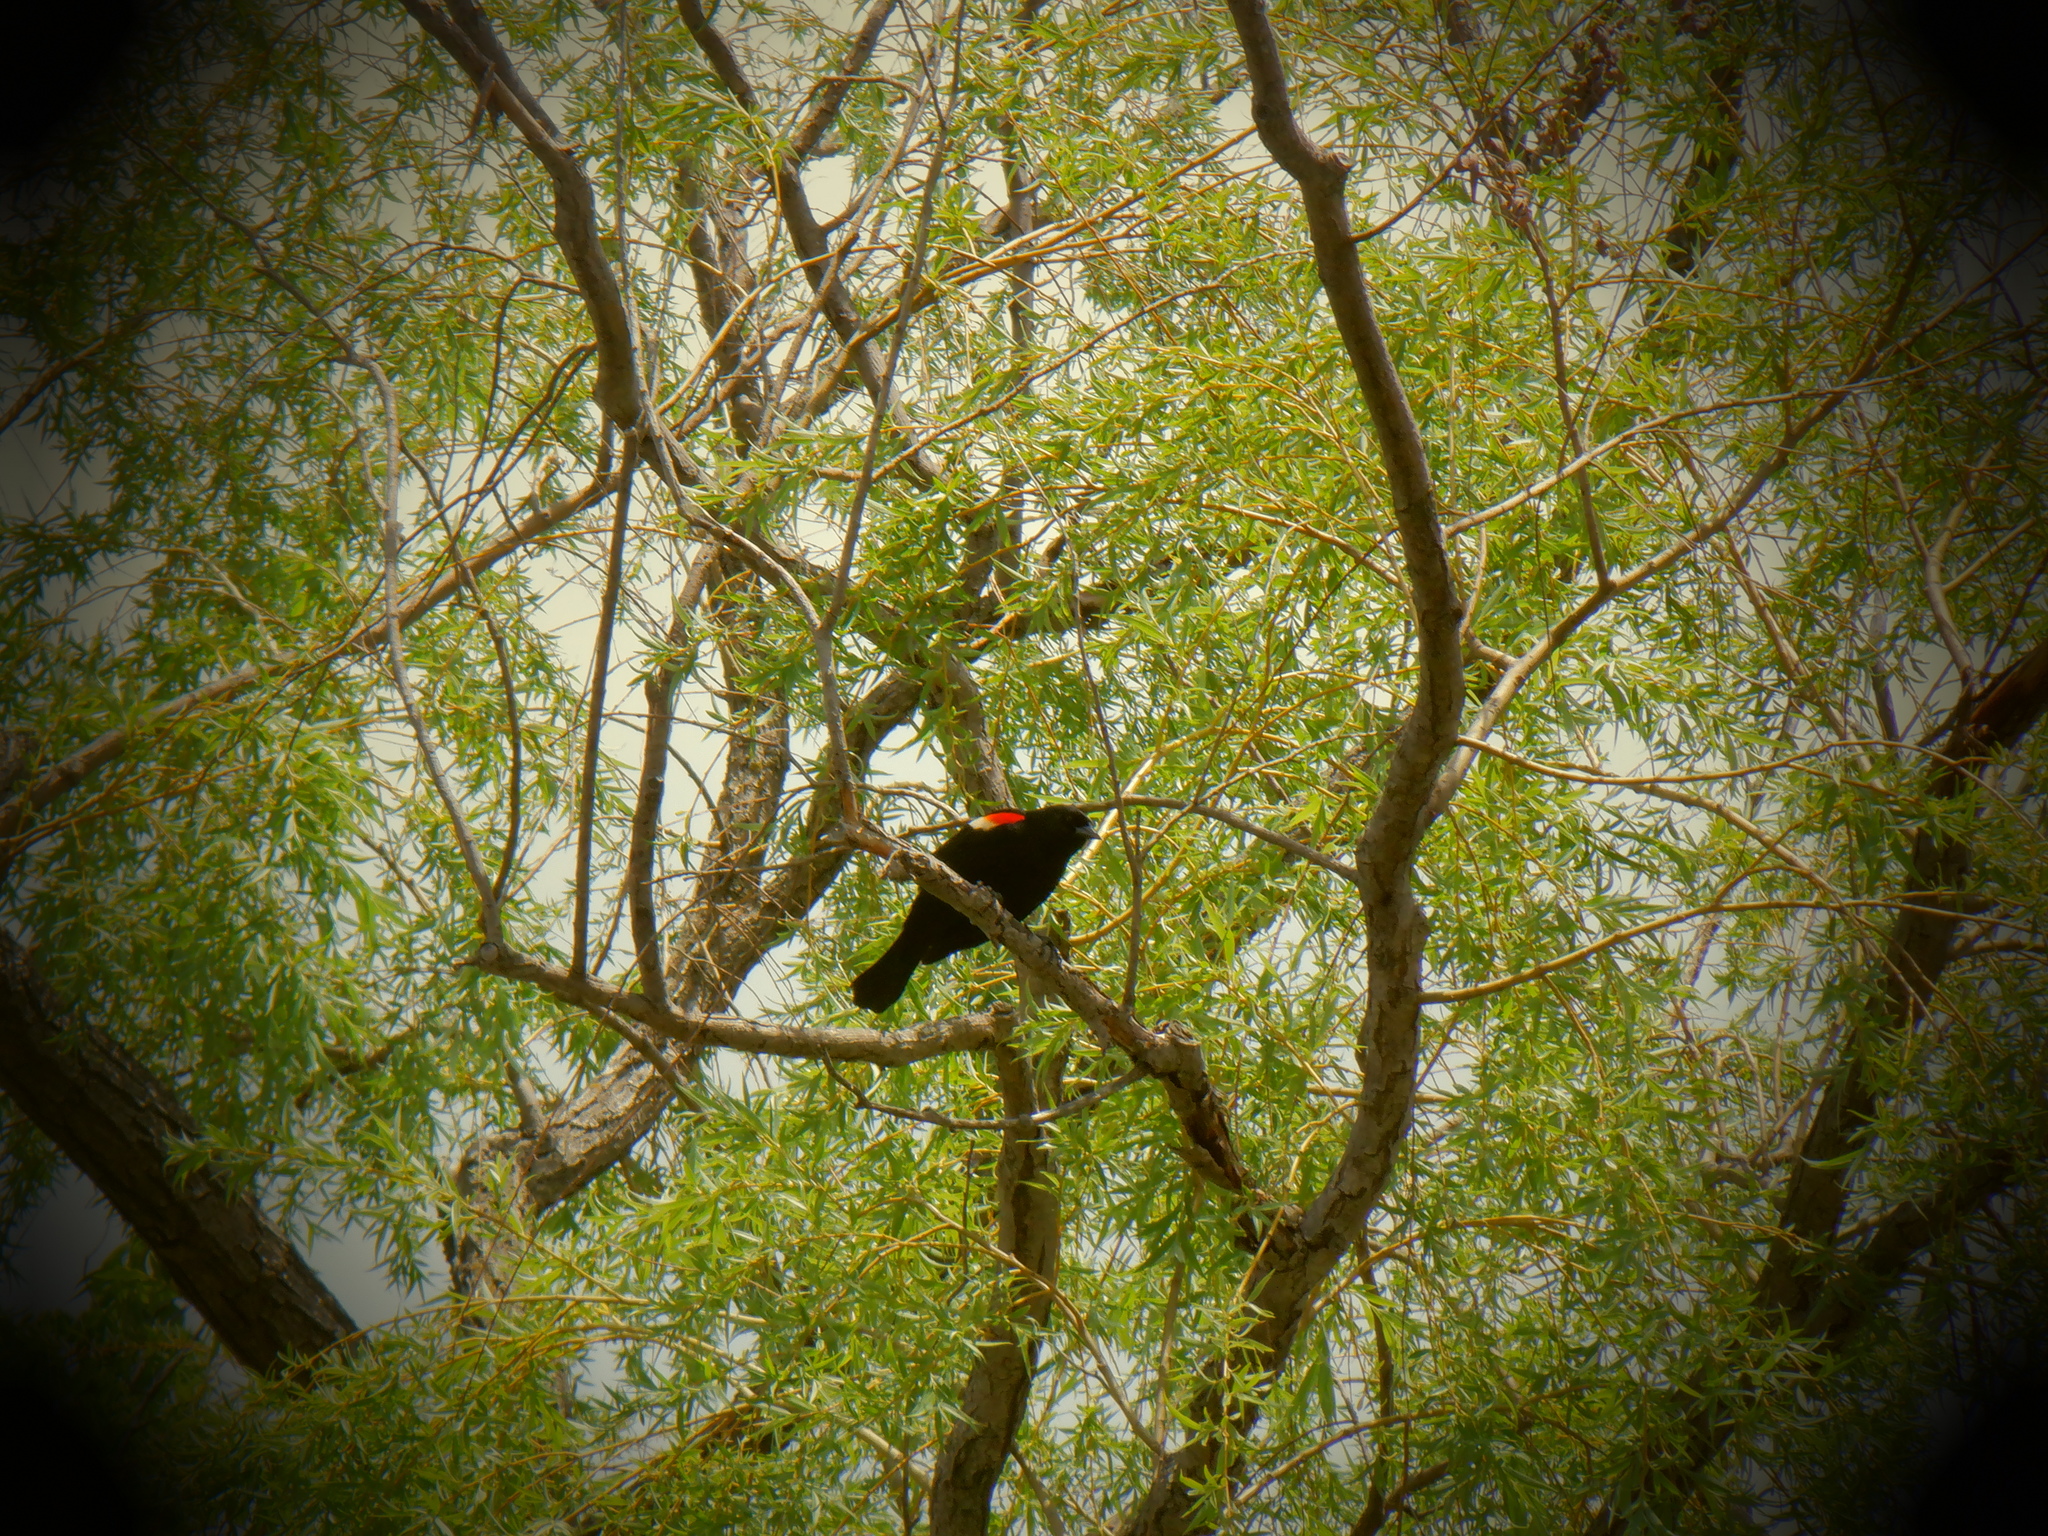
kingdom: Animalia
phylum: Chordata
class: Aves
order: Passeriformes
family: Icteridae
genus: Agelaius
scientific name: Agelaius phoeniceus
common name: Red-winged blackbird
